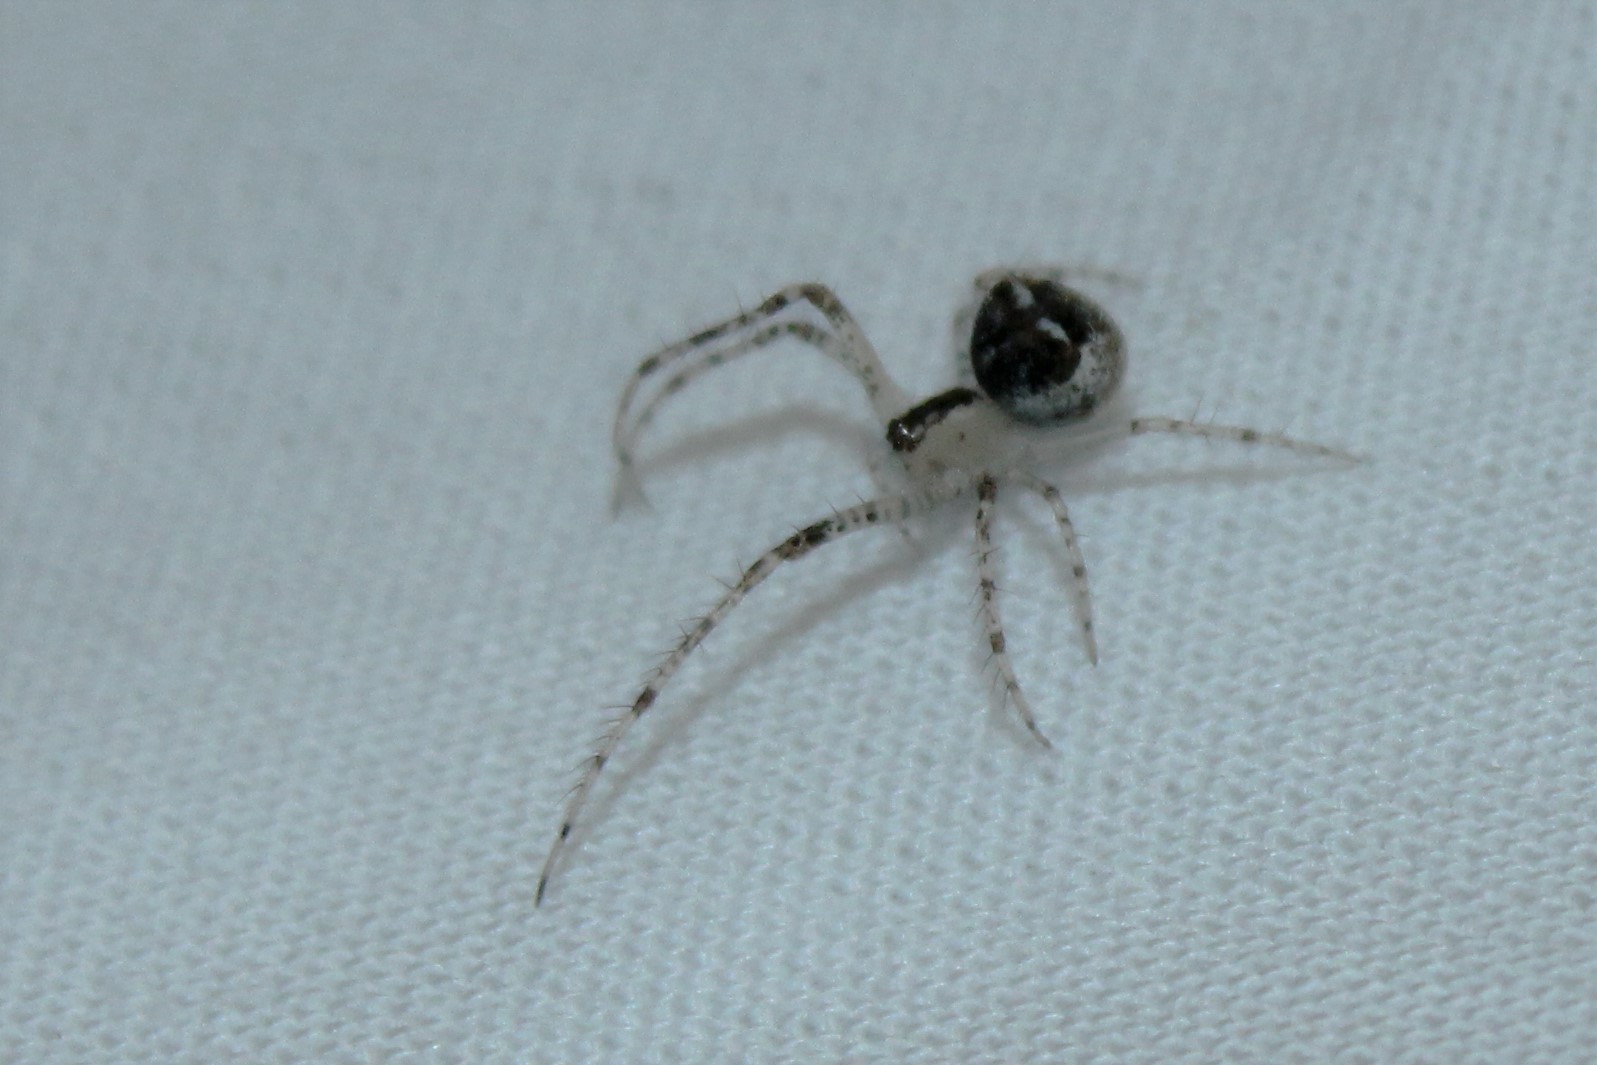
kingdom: Animalia
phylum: Arthropoda
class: Arachnida
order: Araneae
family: Mimetidae
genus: Mimetus
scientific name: Mimetus puritanus
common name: Common pirate spider
